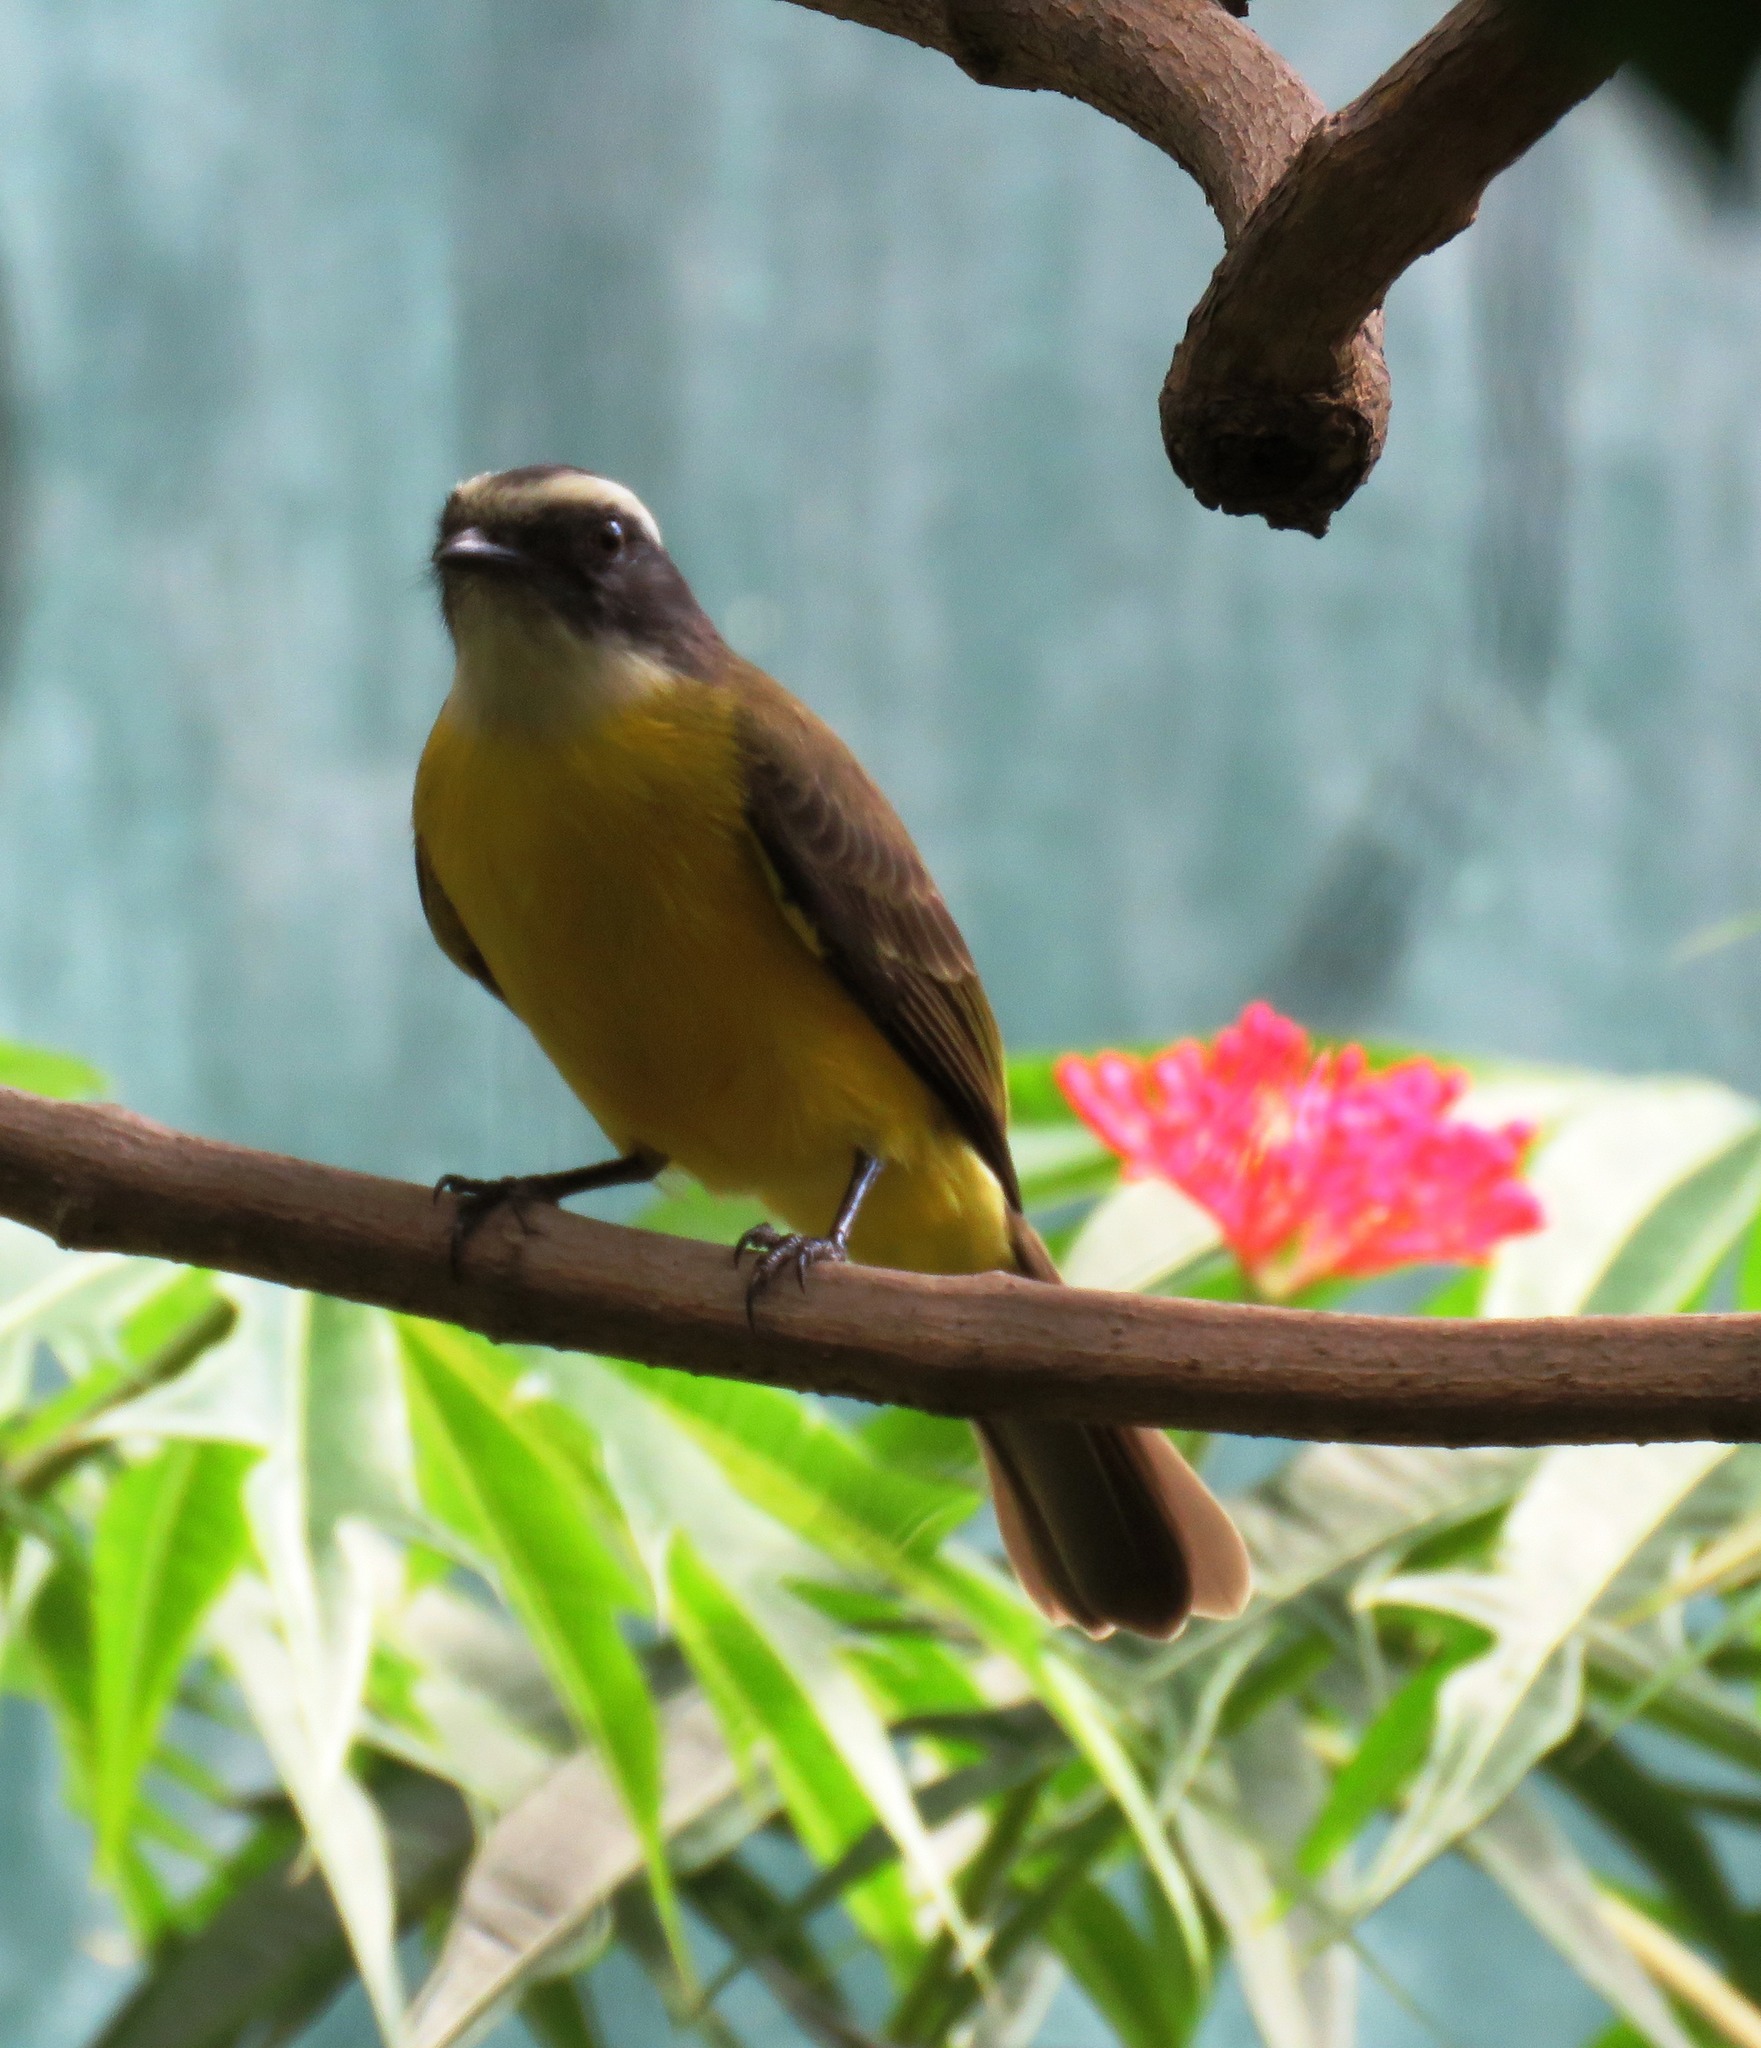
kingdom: Animalia
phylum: Chordata
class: Aves
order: Passeriformes
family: Tyrannidae
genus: Myiozetetes
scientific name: Myiozetetes similis
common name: Social flycatcher
